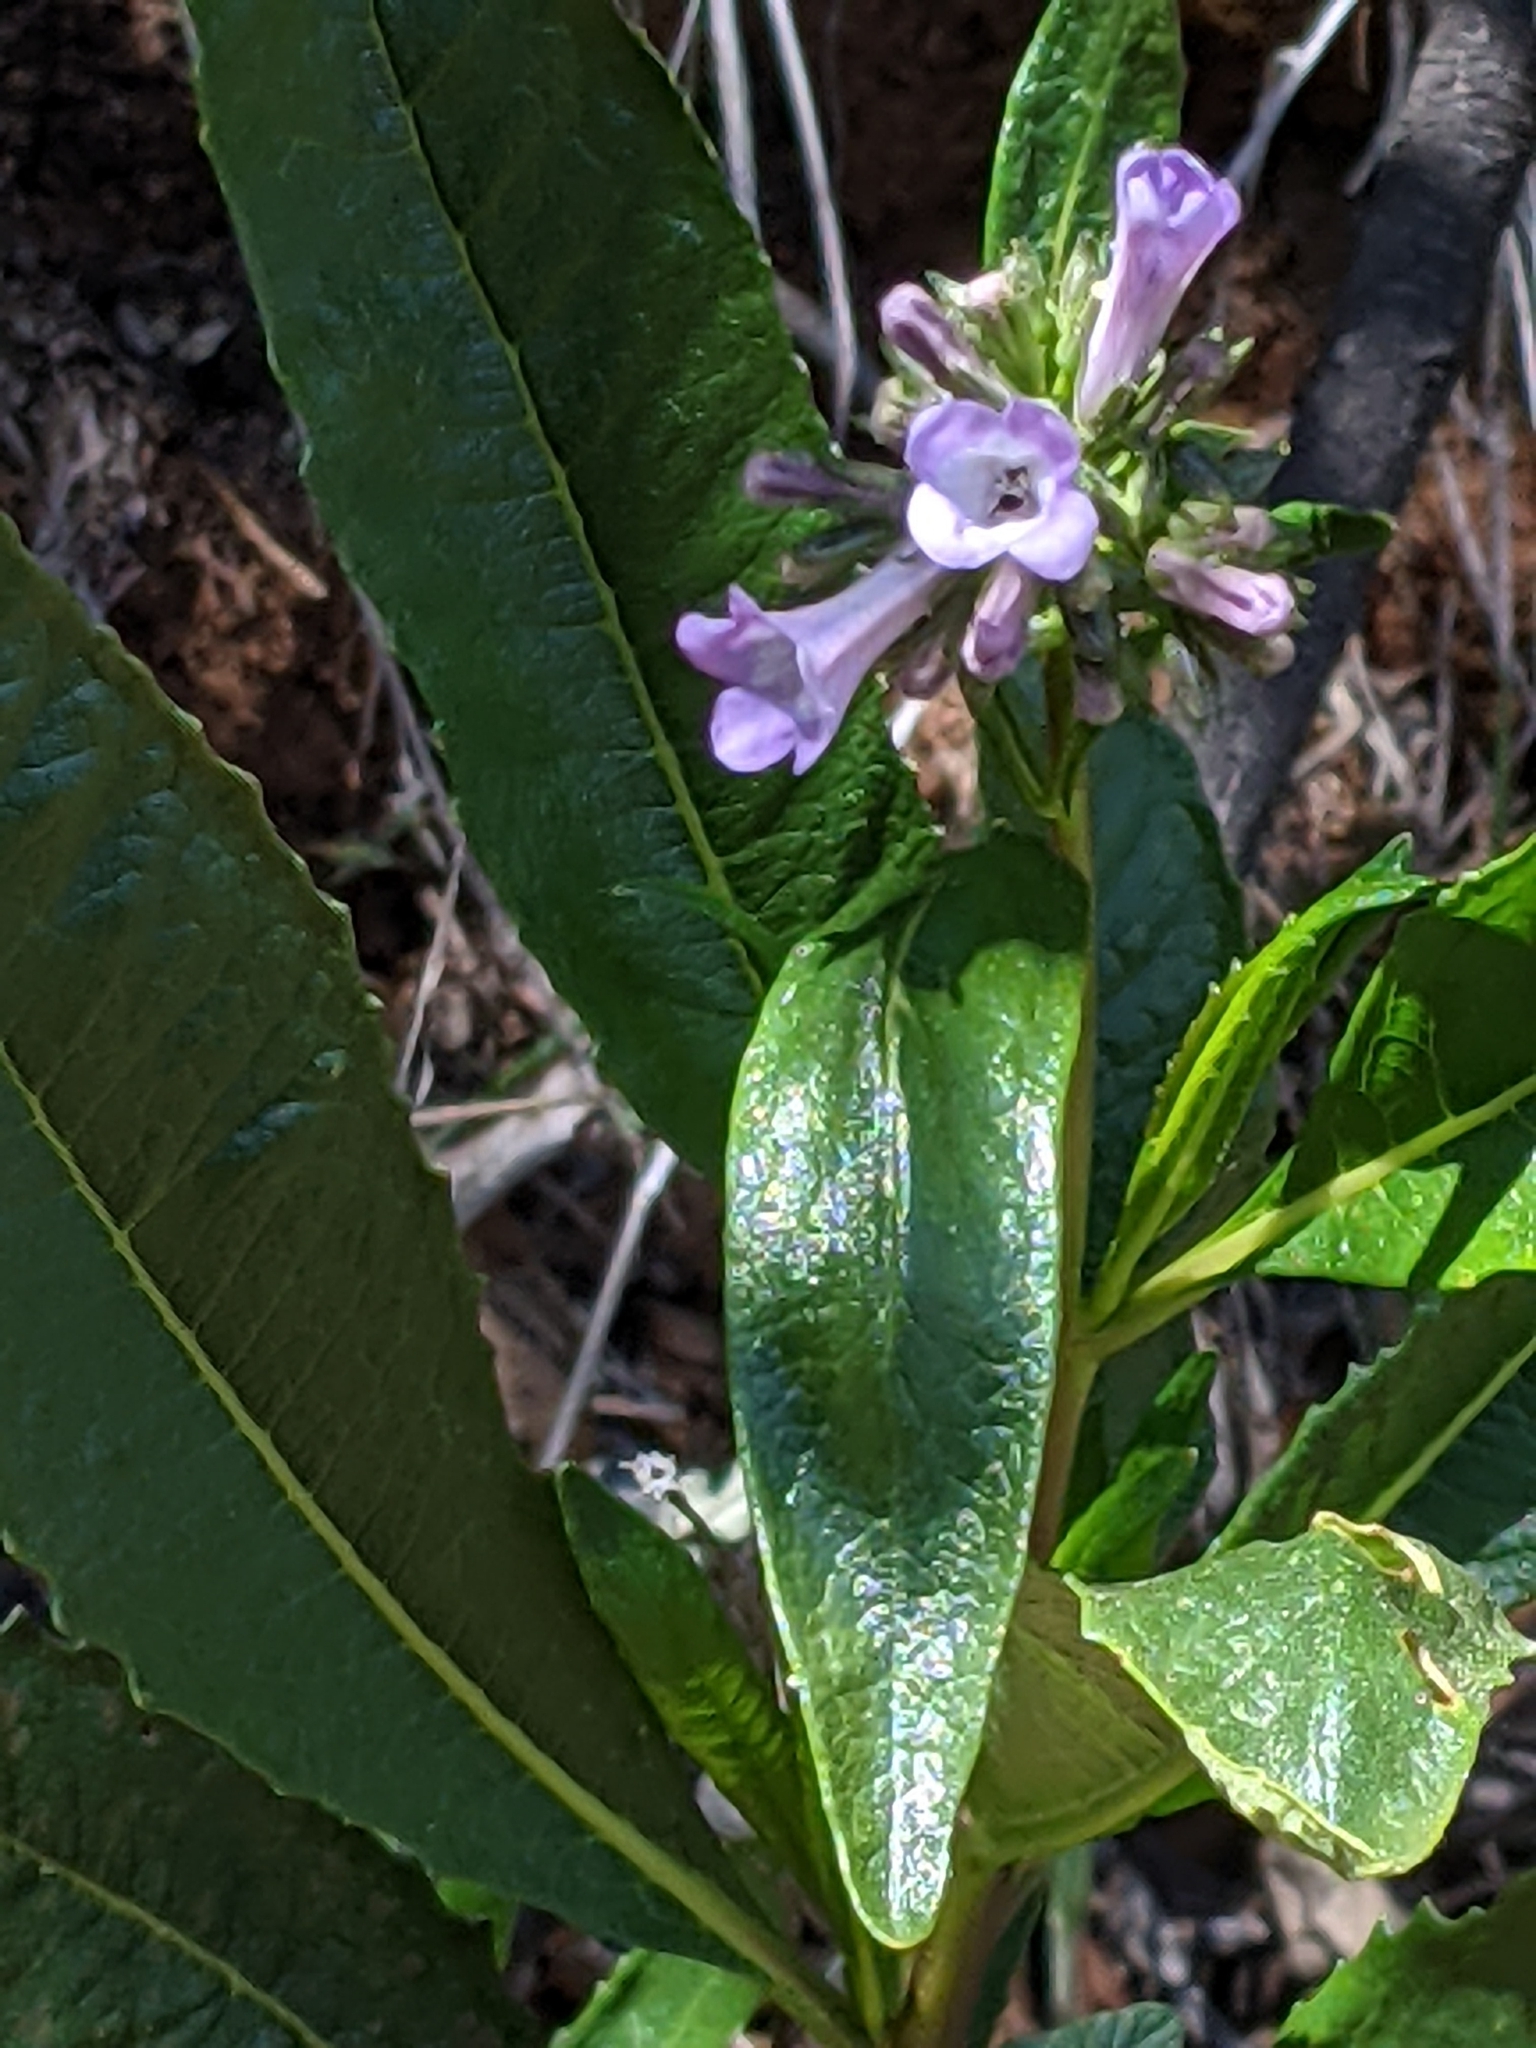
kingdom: Plantae
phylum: Tracheophyta
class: Magnoliopsida
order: Boraginales
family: Namaceae
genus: Eriodictyon
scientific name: Eriodictyon californicum
